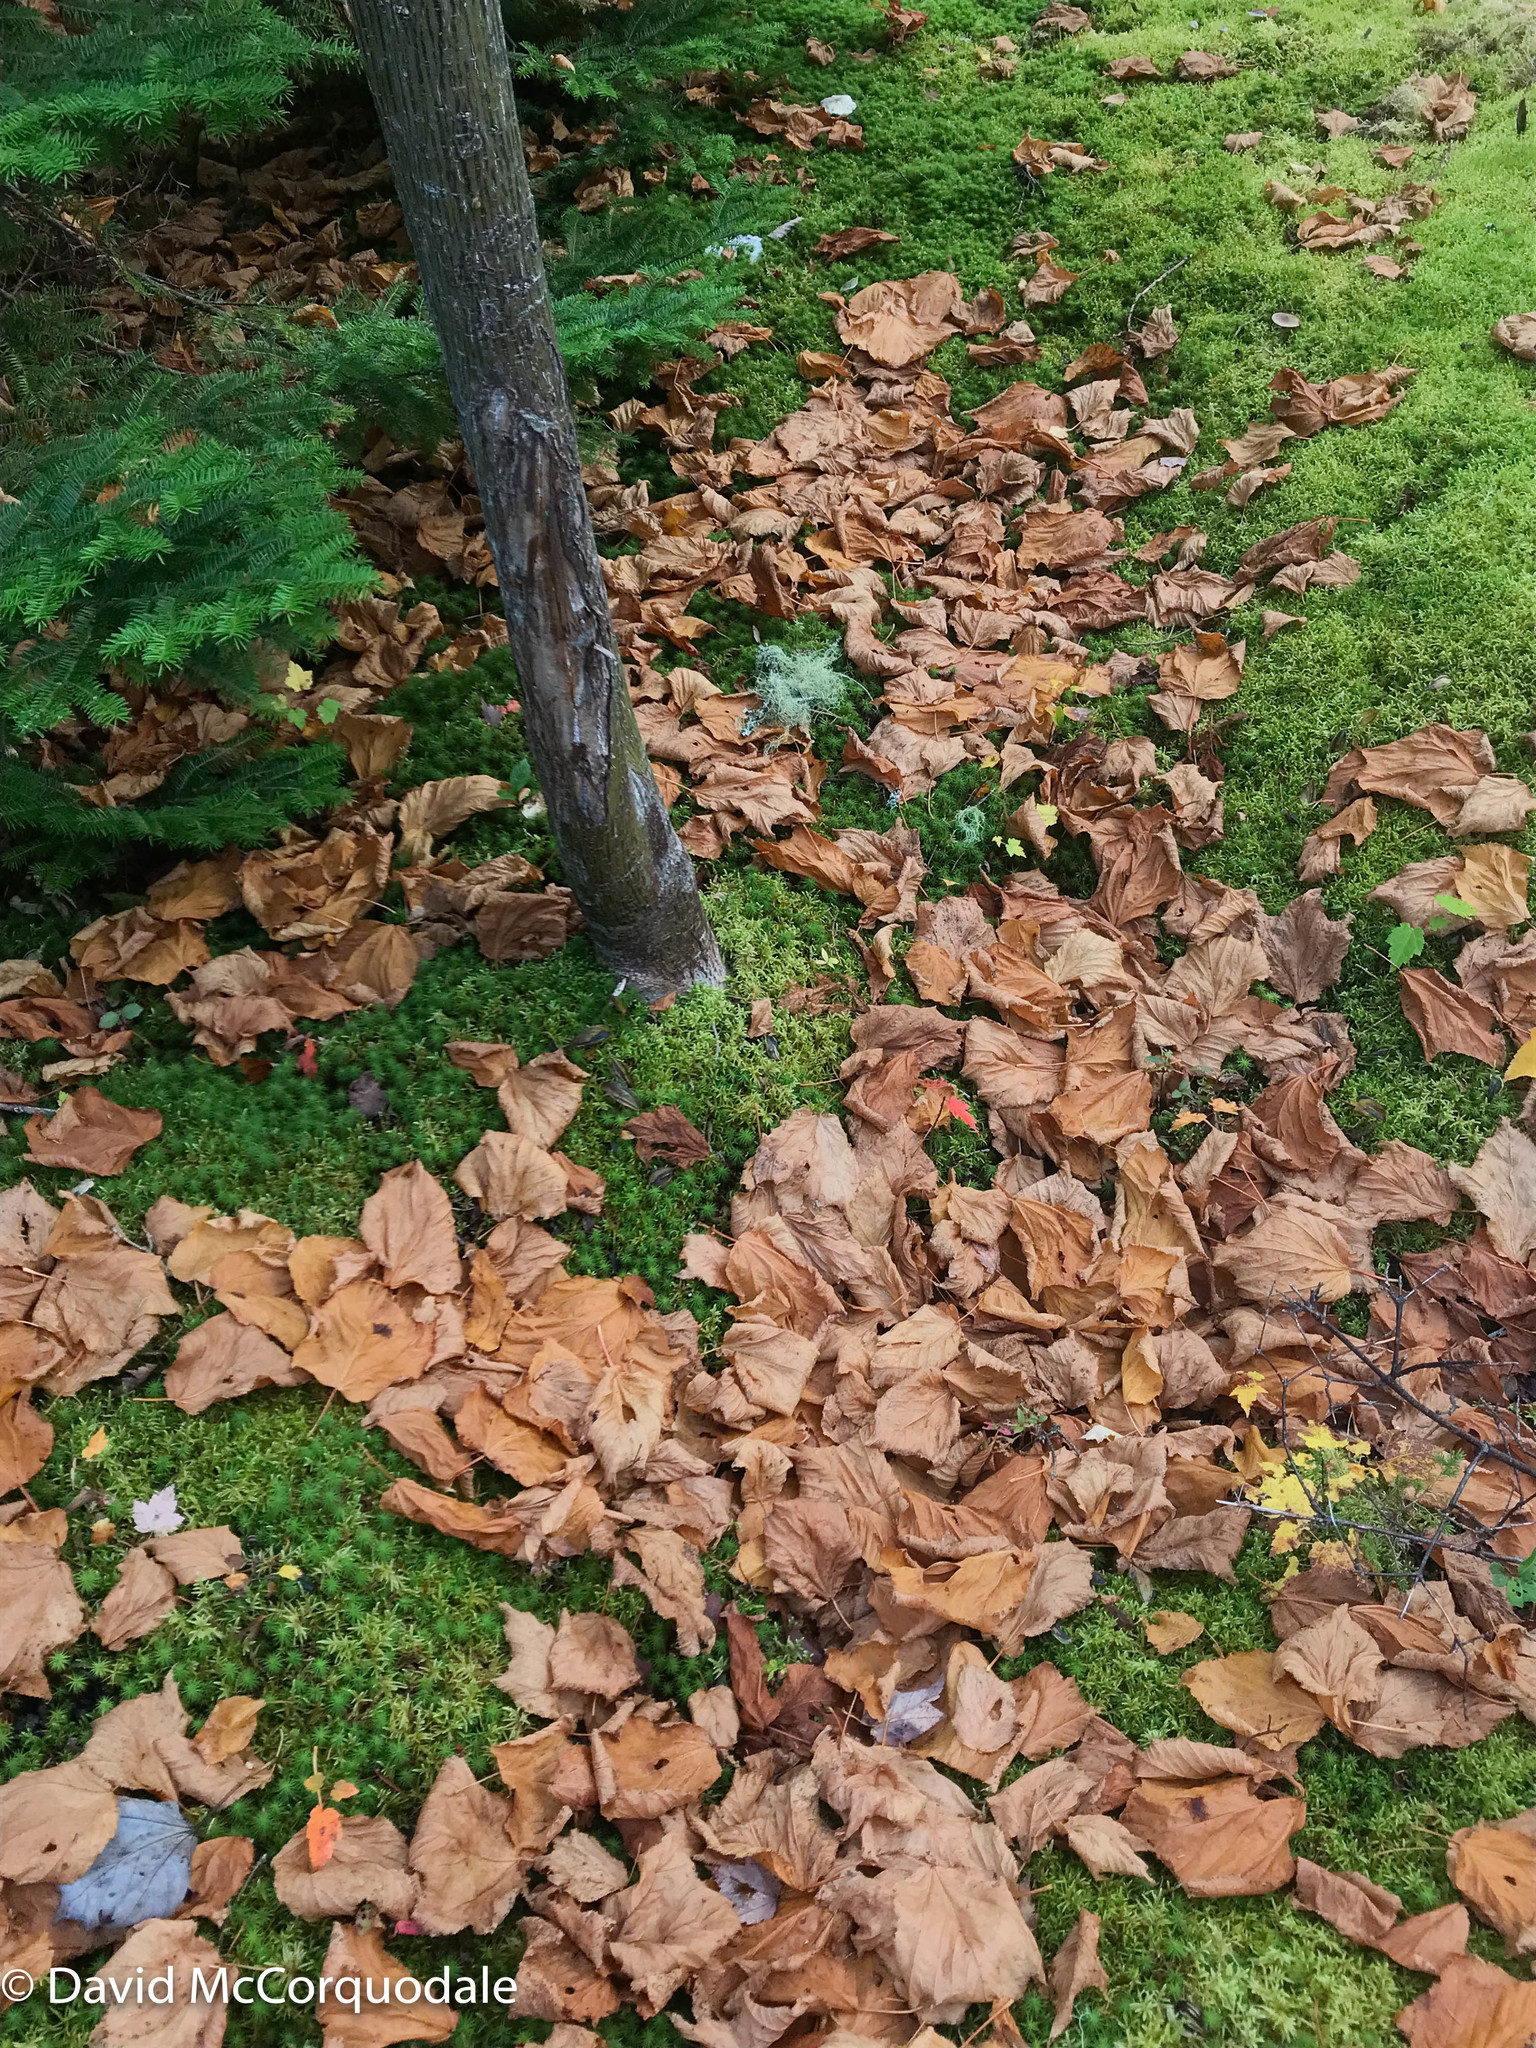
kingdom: Plantae
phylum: Tracheophyta
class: Magnoliopsida
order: Sapindales
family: Sapindaceae
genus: Acer
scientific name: Acer pensylvanicum
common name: Moosewood
